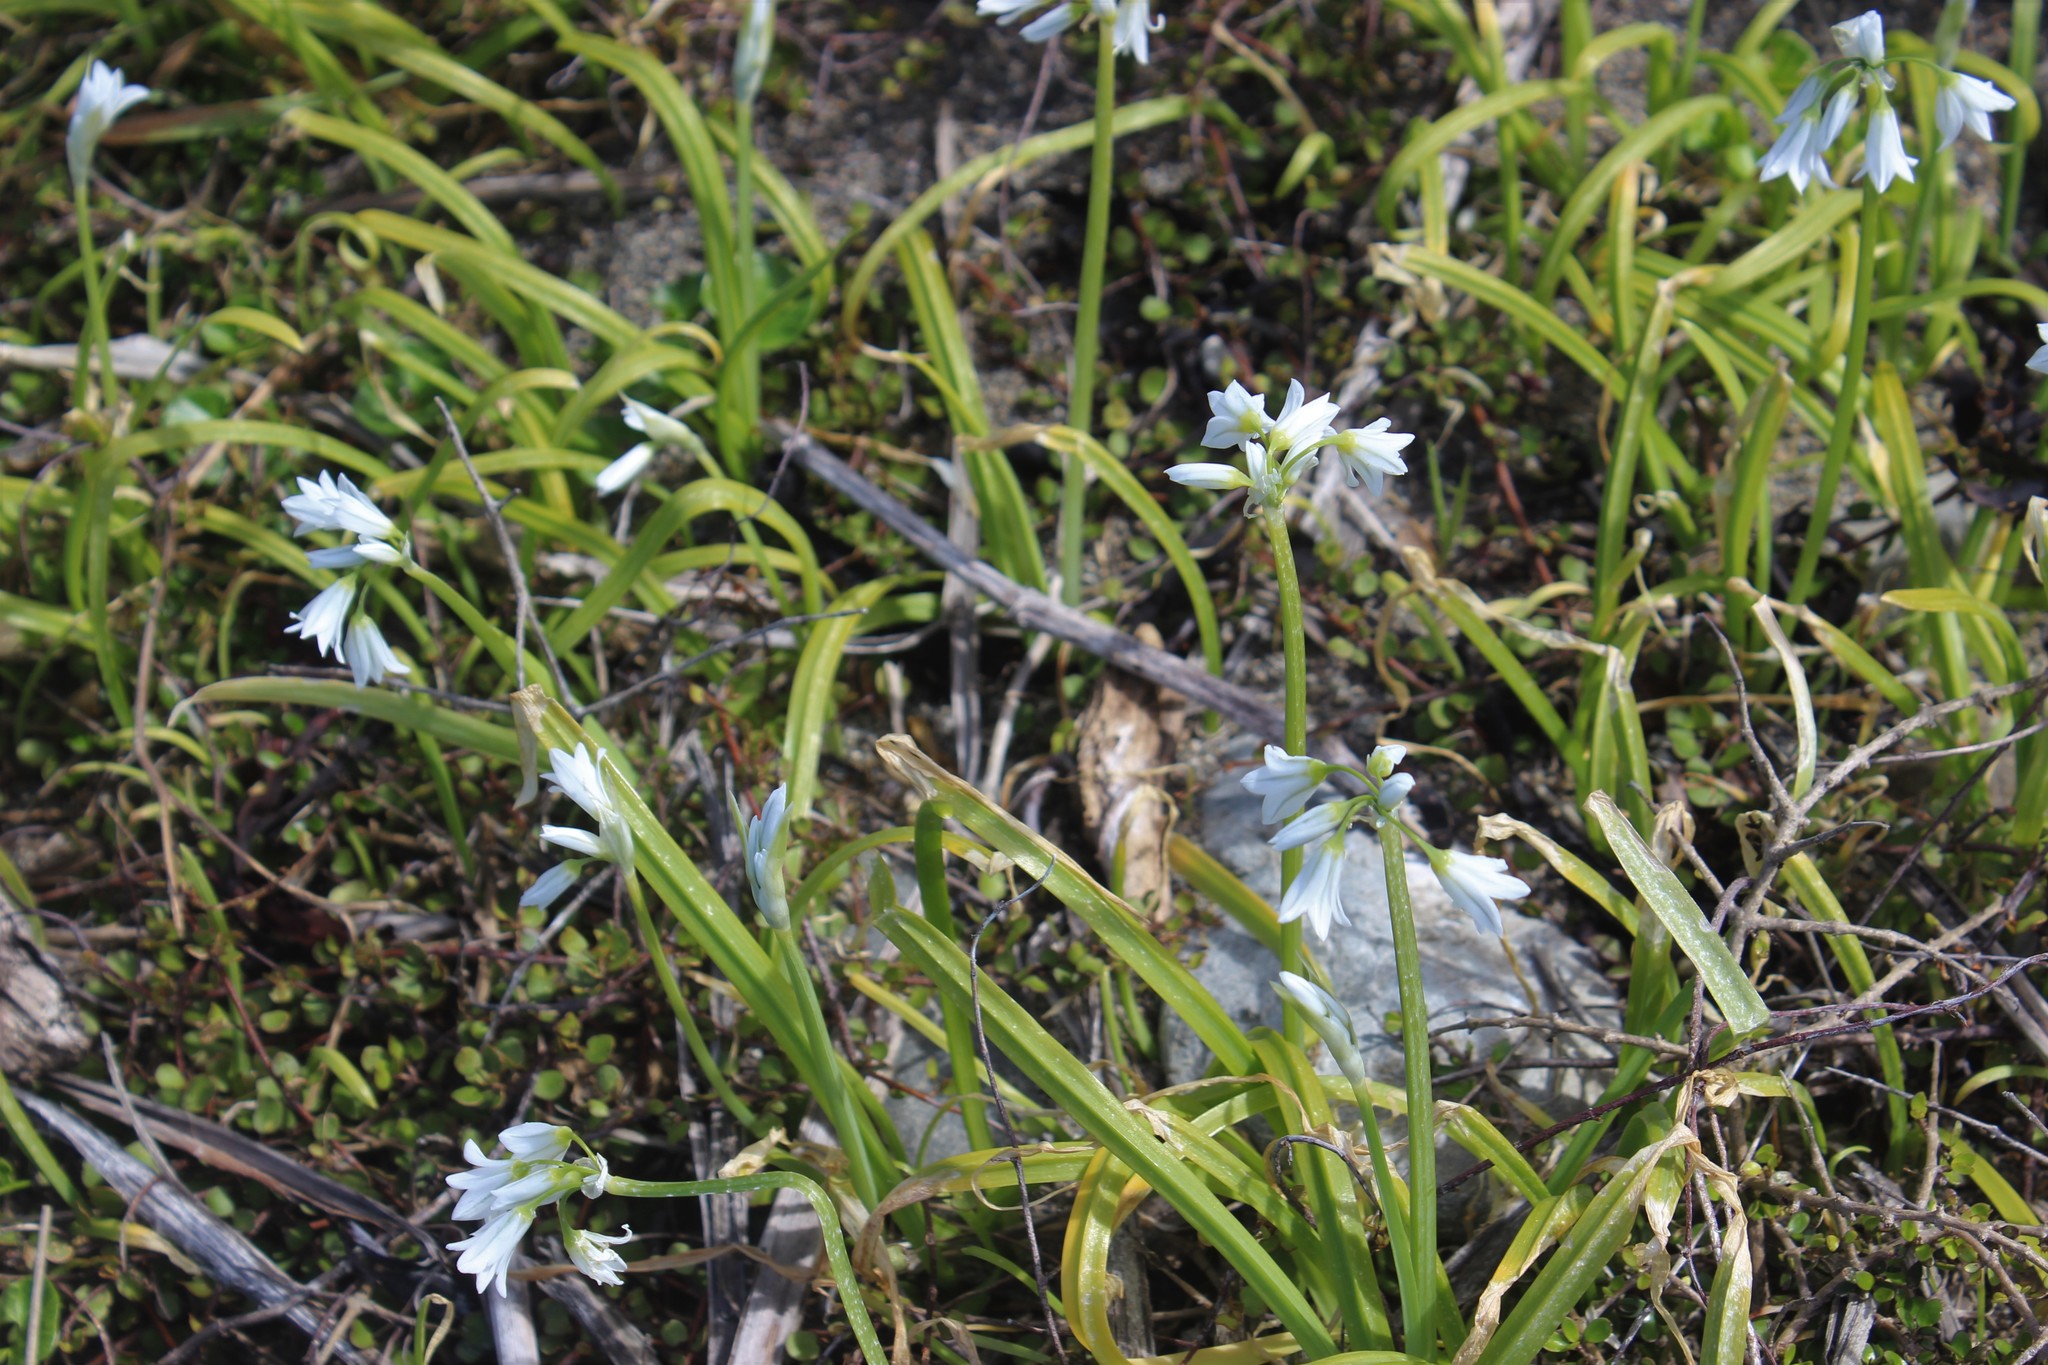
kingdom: Plantae
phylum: Tracheophyta
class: Liliopsida
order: Asparagales
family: Amaryllidaceae
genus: Allium
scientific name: Allium triquetrum
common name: Three-cornered garlic
